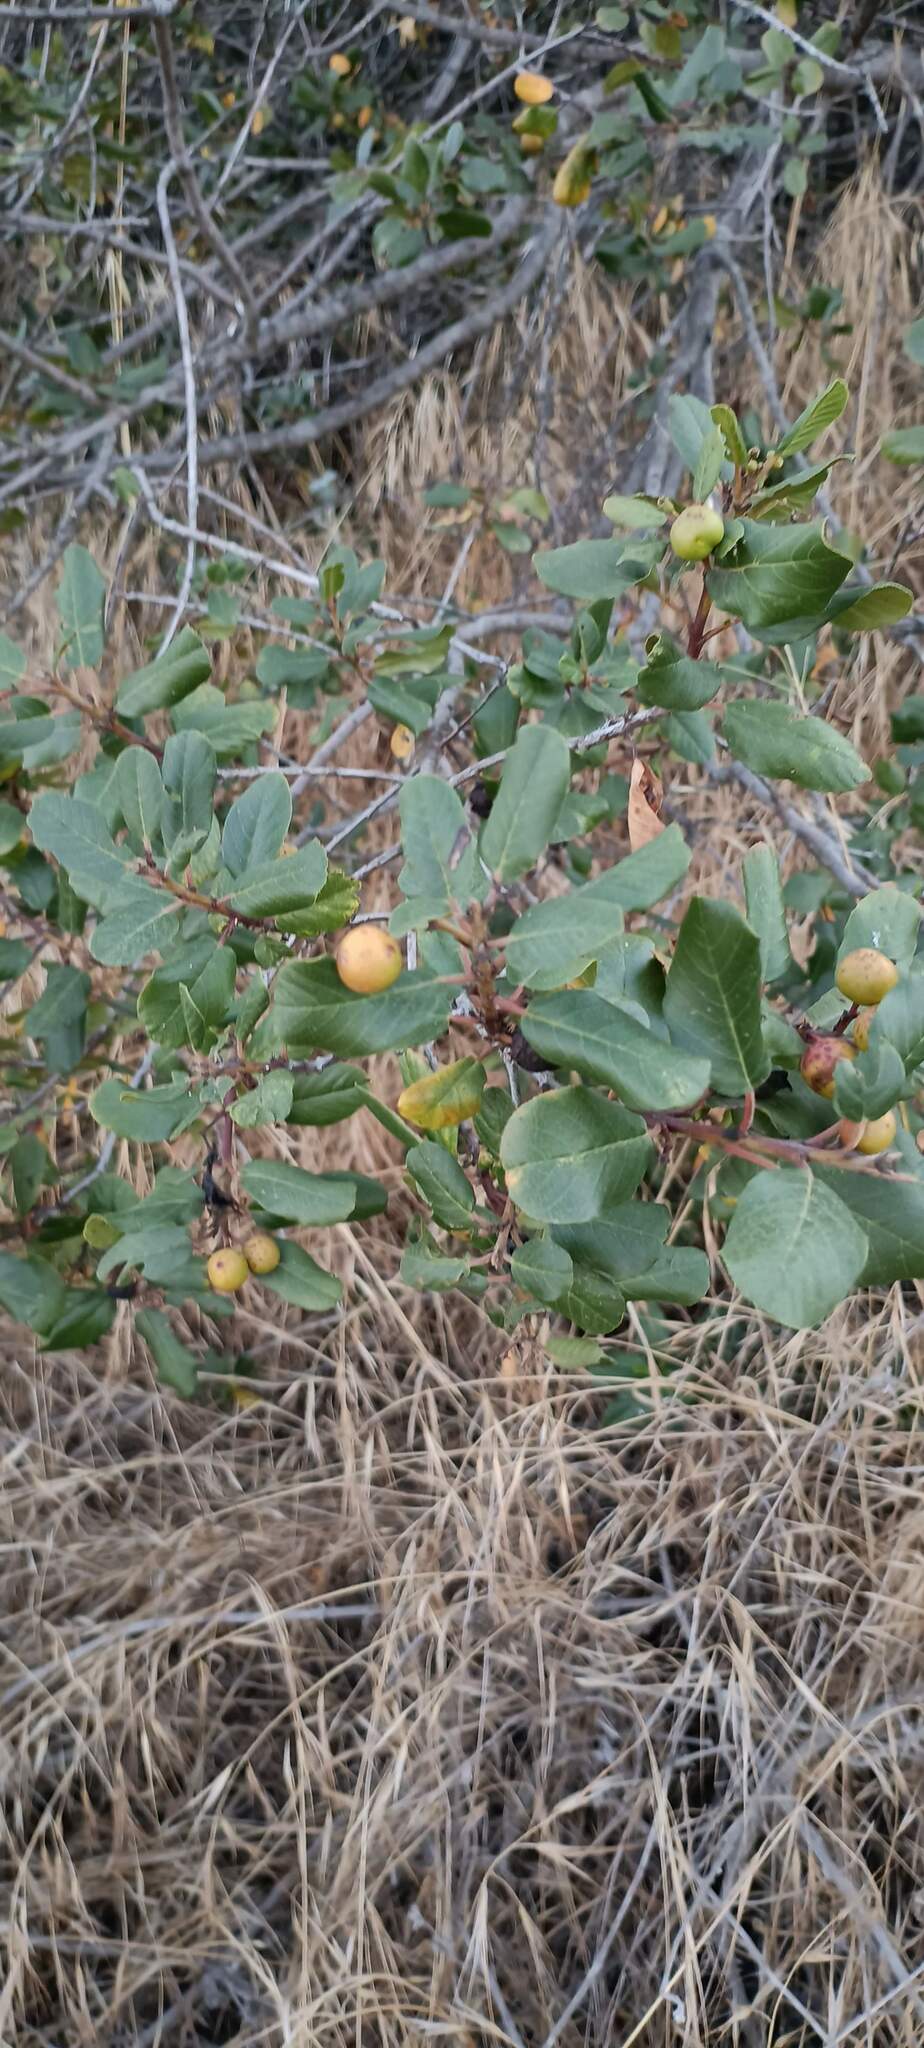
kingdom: Plantae
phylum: Tracheophyta
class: Magnoliopsida
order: Rosales
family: Rhamnaceae
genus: Frangula
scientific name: Frangula californica
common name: California buckthorn
